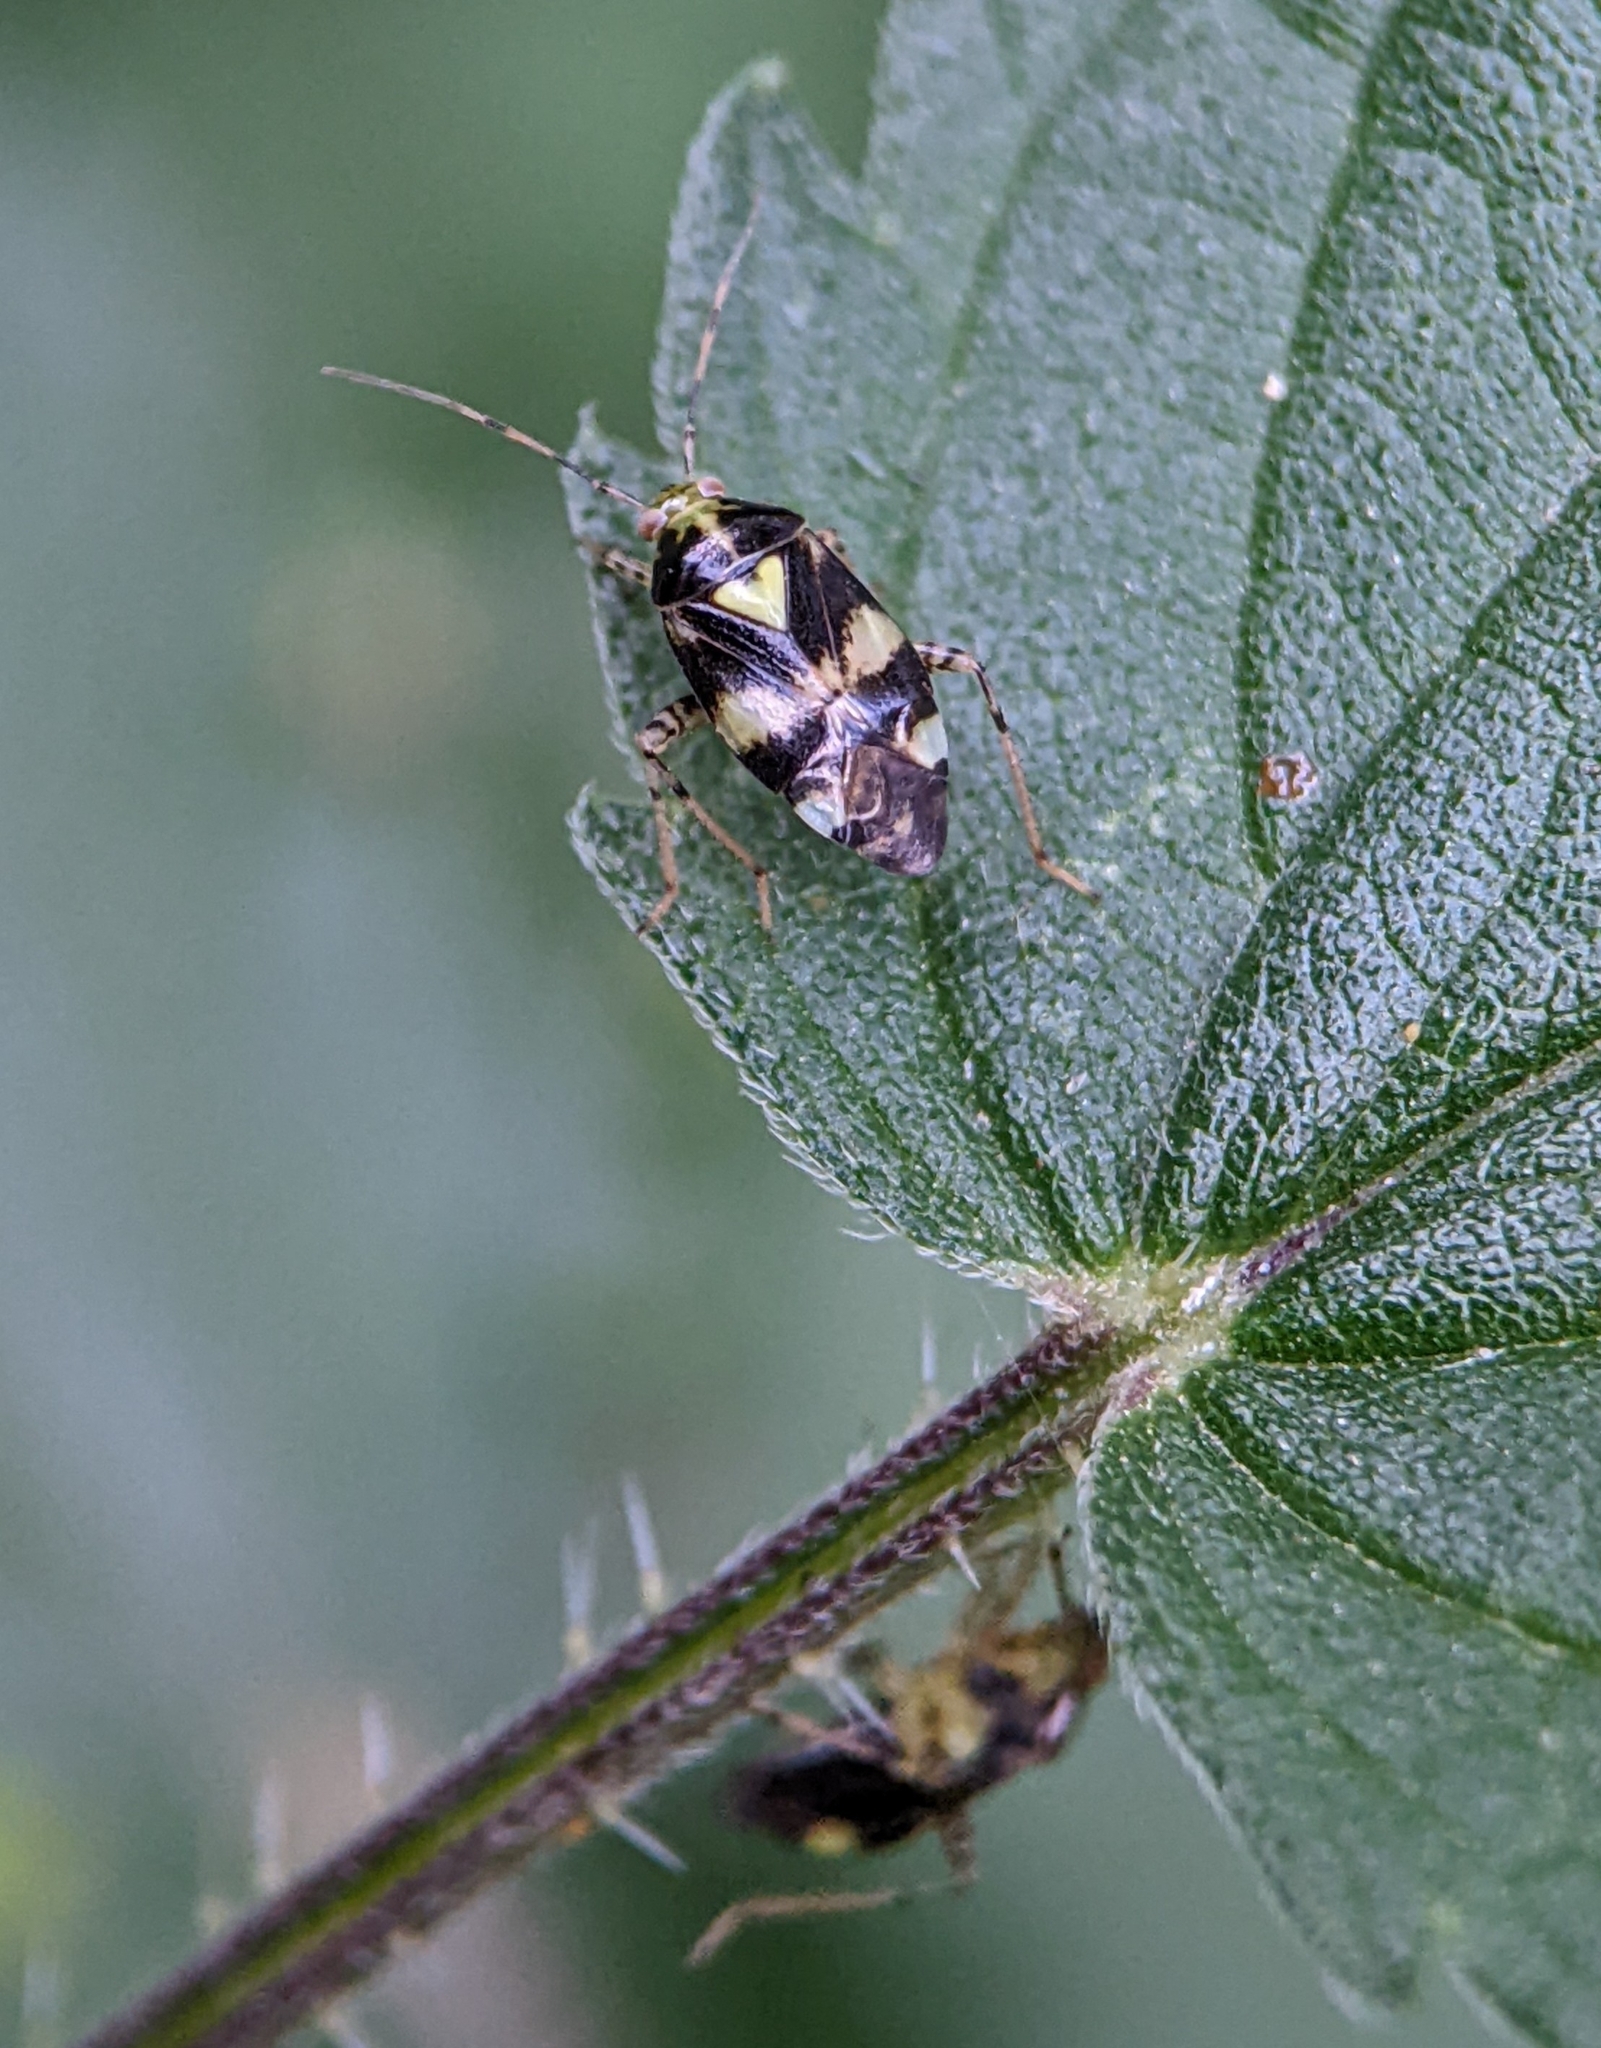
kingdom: Animalia
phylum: Arthropoda
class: Insecta
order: Hemiptera
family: Miridae
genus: Liocoris
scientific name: Liocoris tripustulatus
